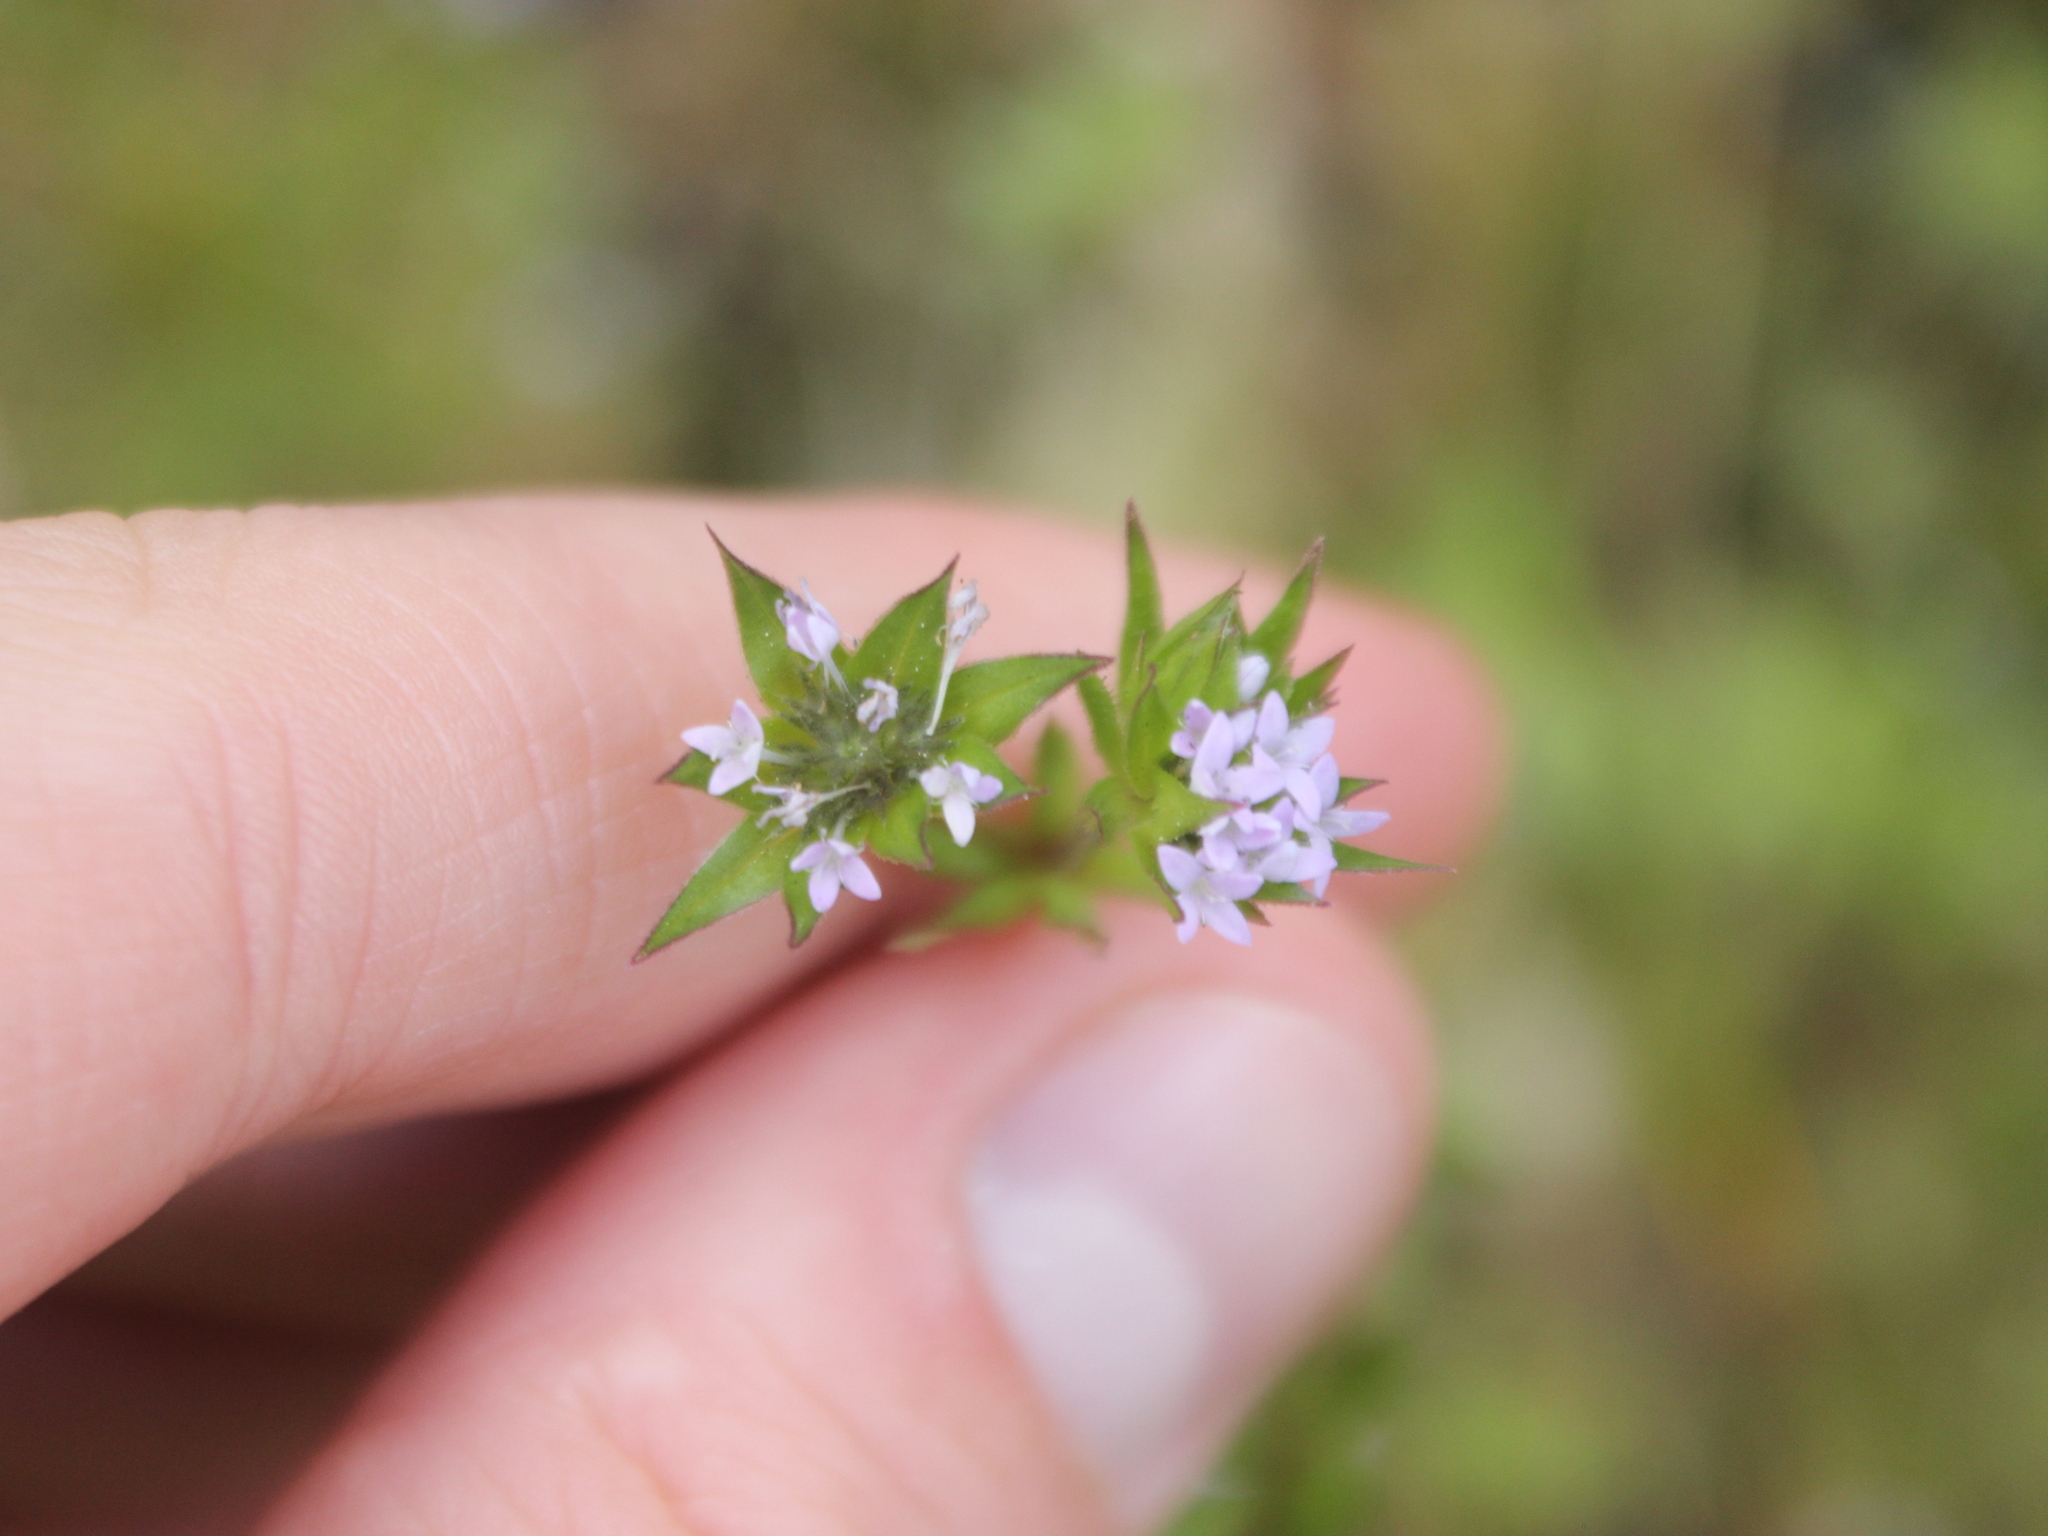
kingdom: Plantae
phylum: Tracheophyta
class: Magnoliopsida
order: Gentianales
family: Rubiaceae
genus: Sherardia
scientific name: Sherardia arvensis
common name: Field madder
